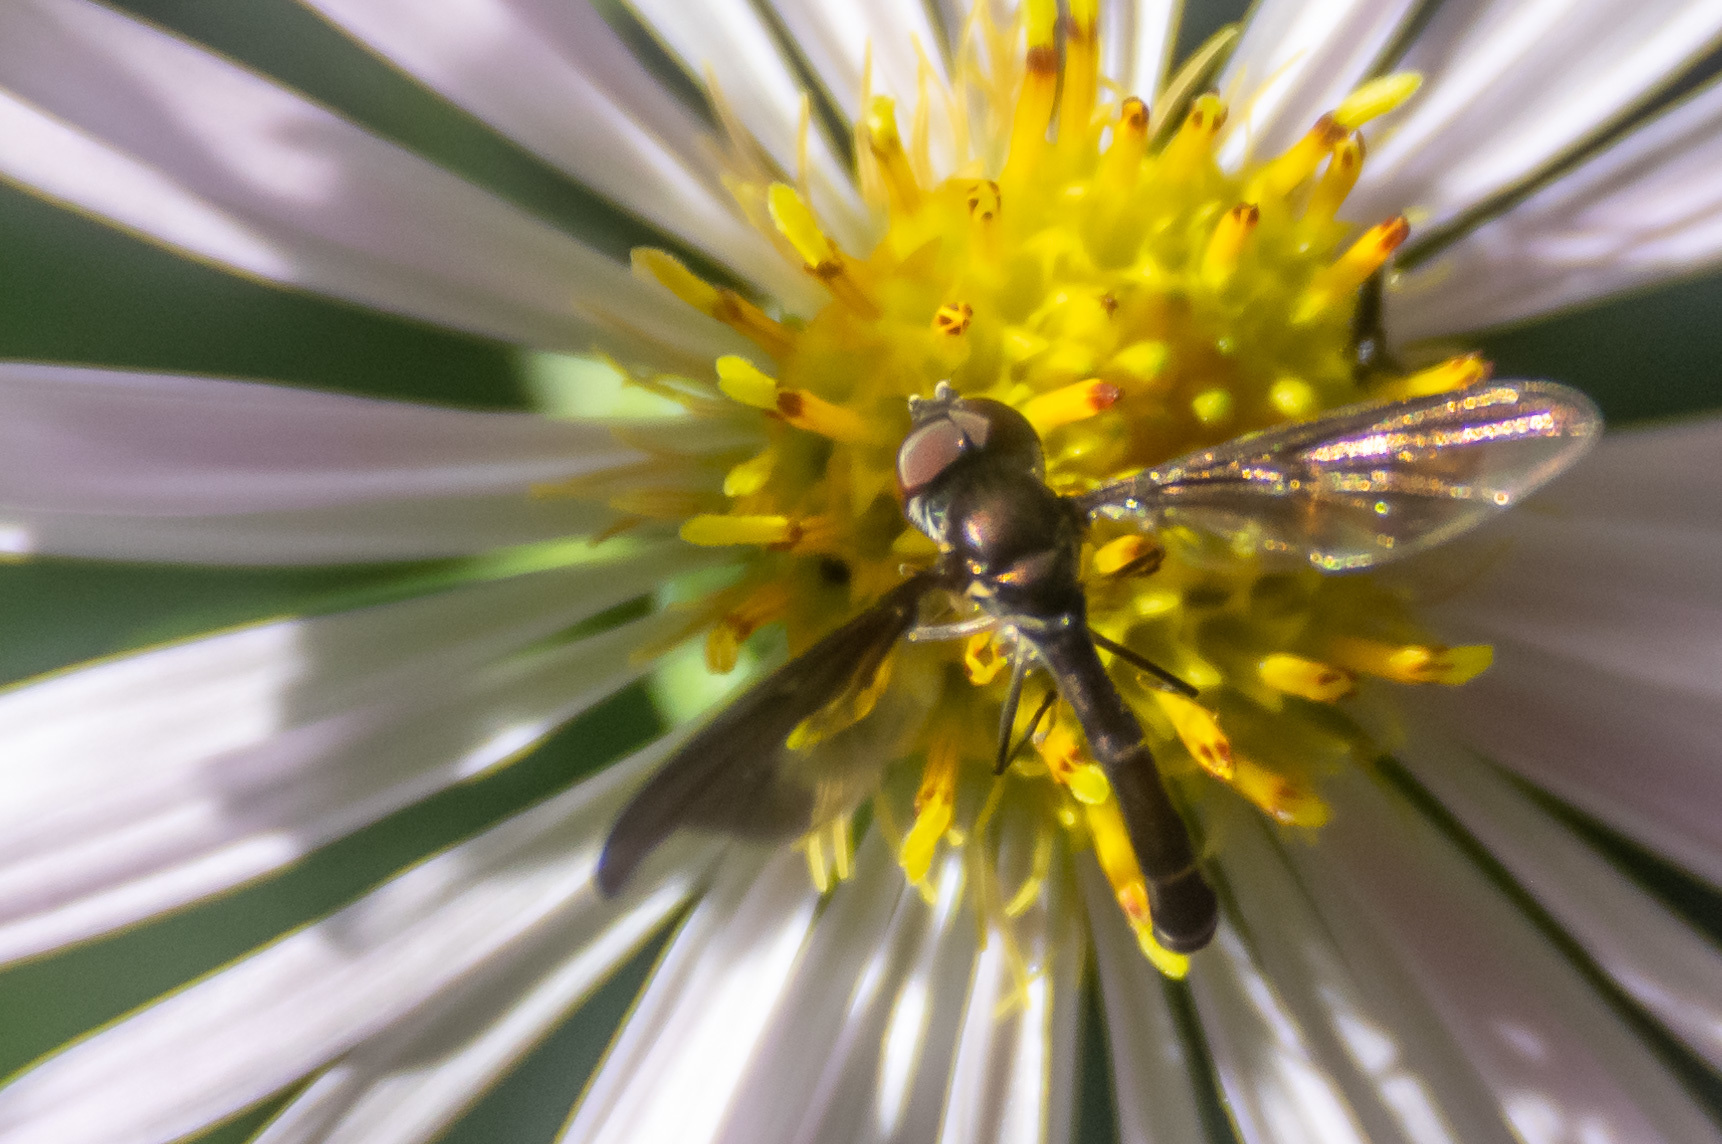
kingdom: Animalia
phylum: Arthropoda
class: Insecta
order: Diptera
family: Syrphidae
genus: Ocyptamus
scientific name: Ocyptamus fuscipennis
